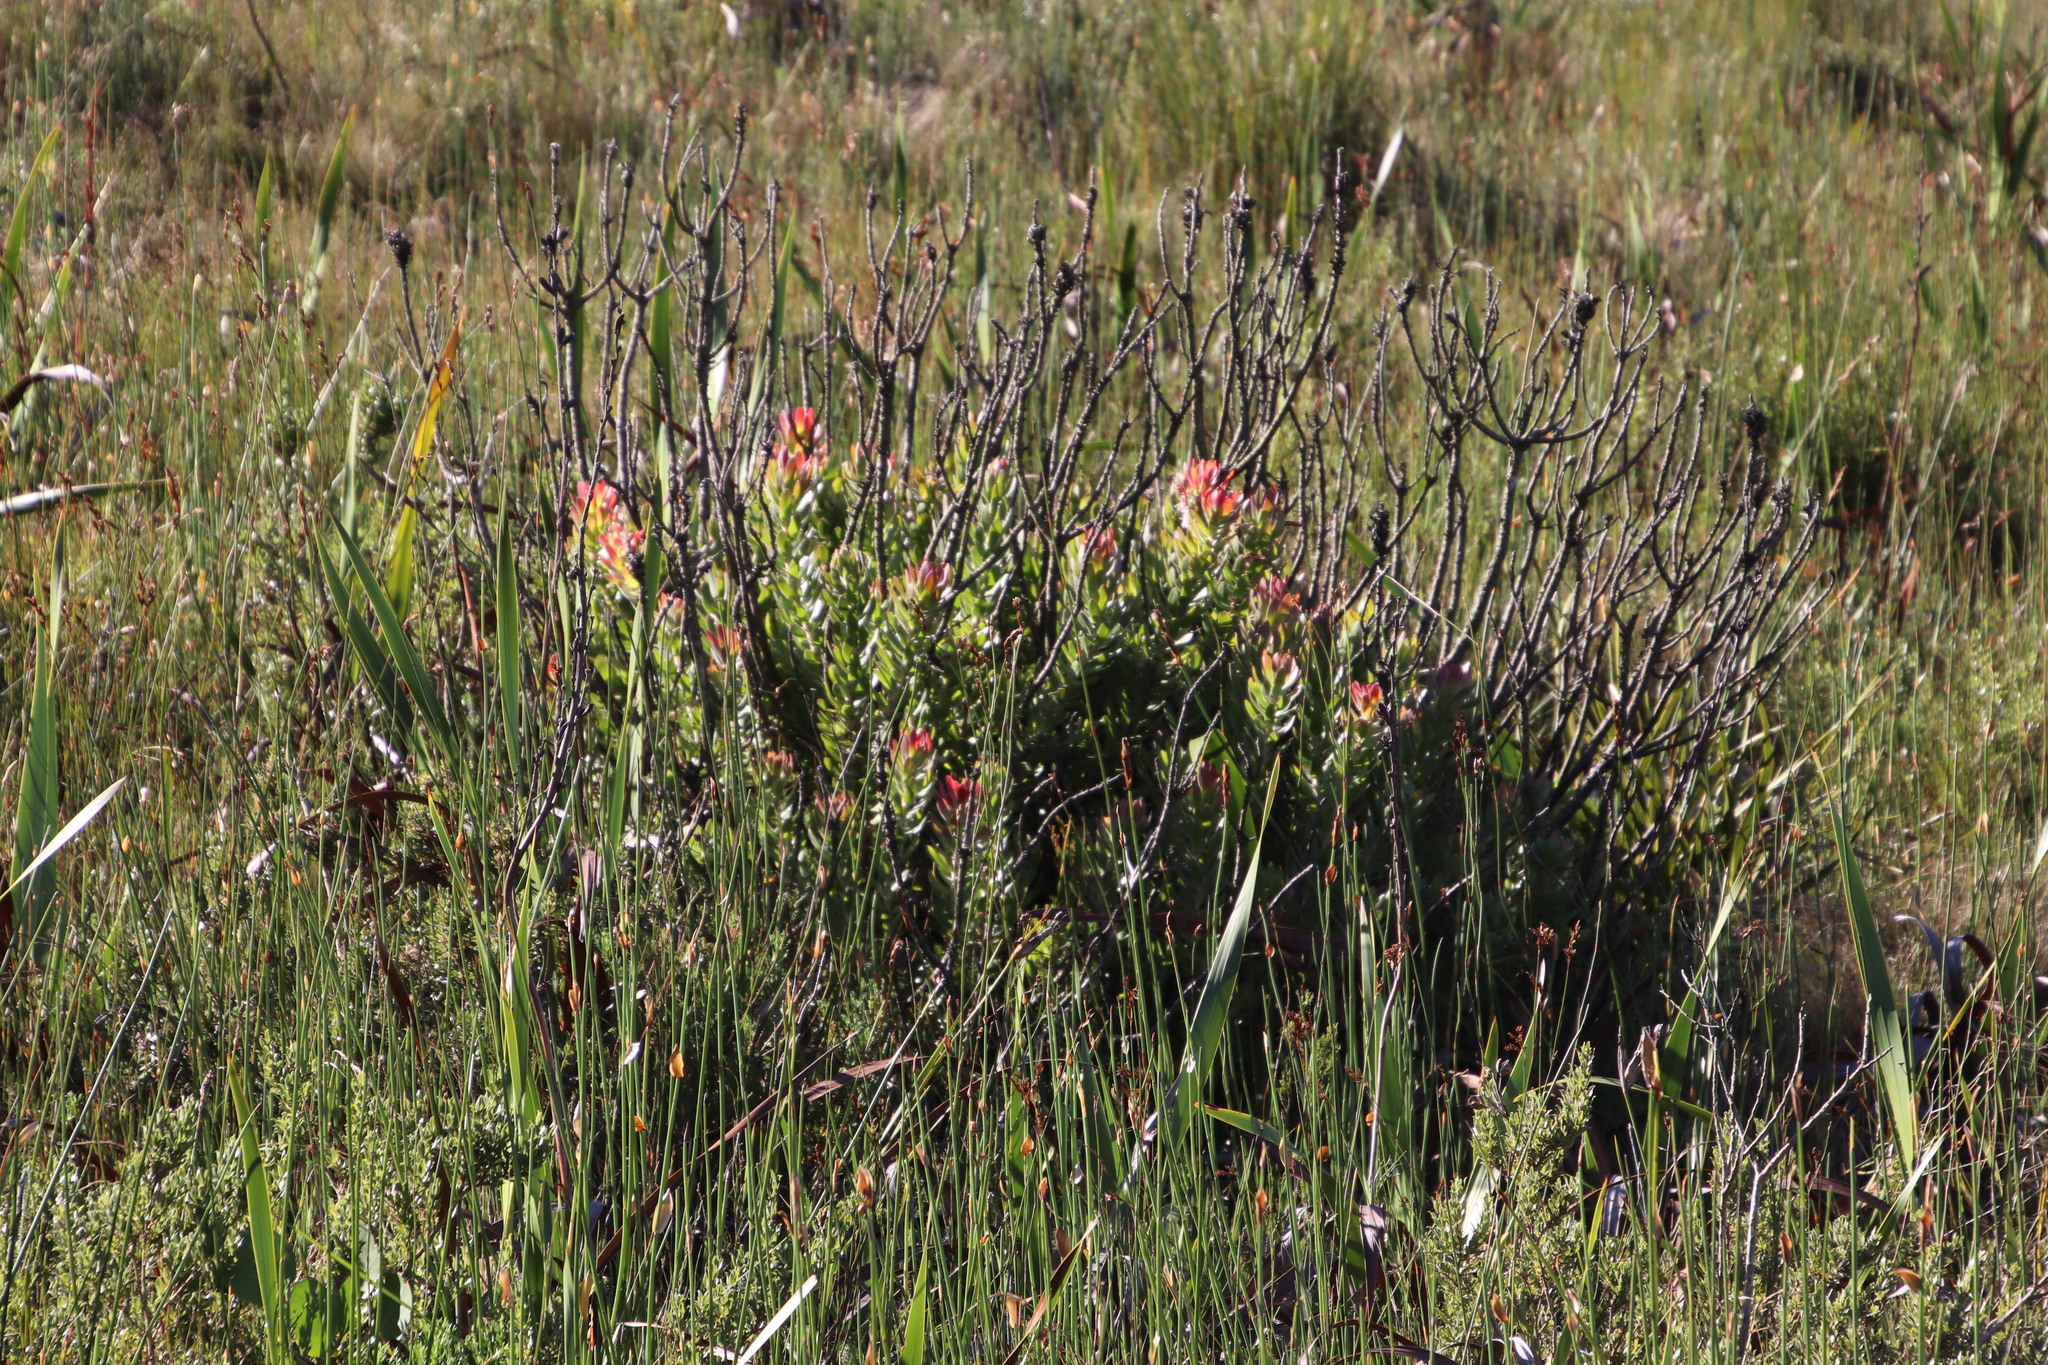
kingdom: Plantae
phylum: Tracheophyta
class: Magnoliopsida
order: Proteales
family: Proteaceae
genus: Mimetes
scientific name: Mimetes cucullatus
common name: Common pagoda
